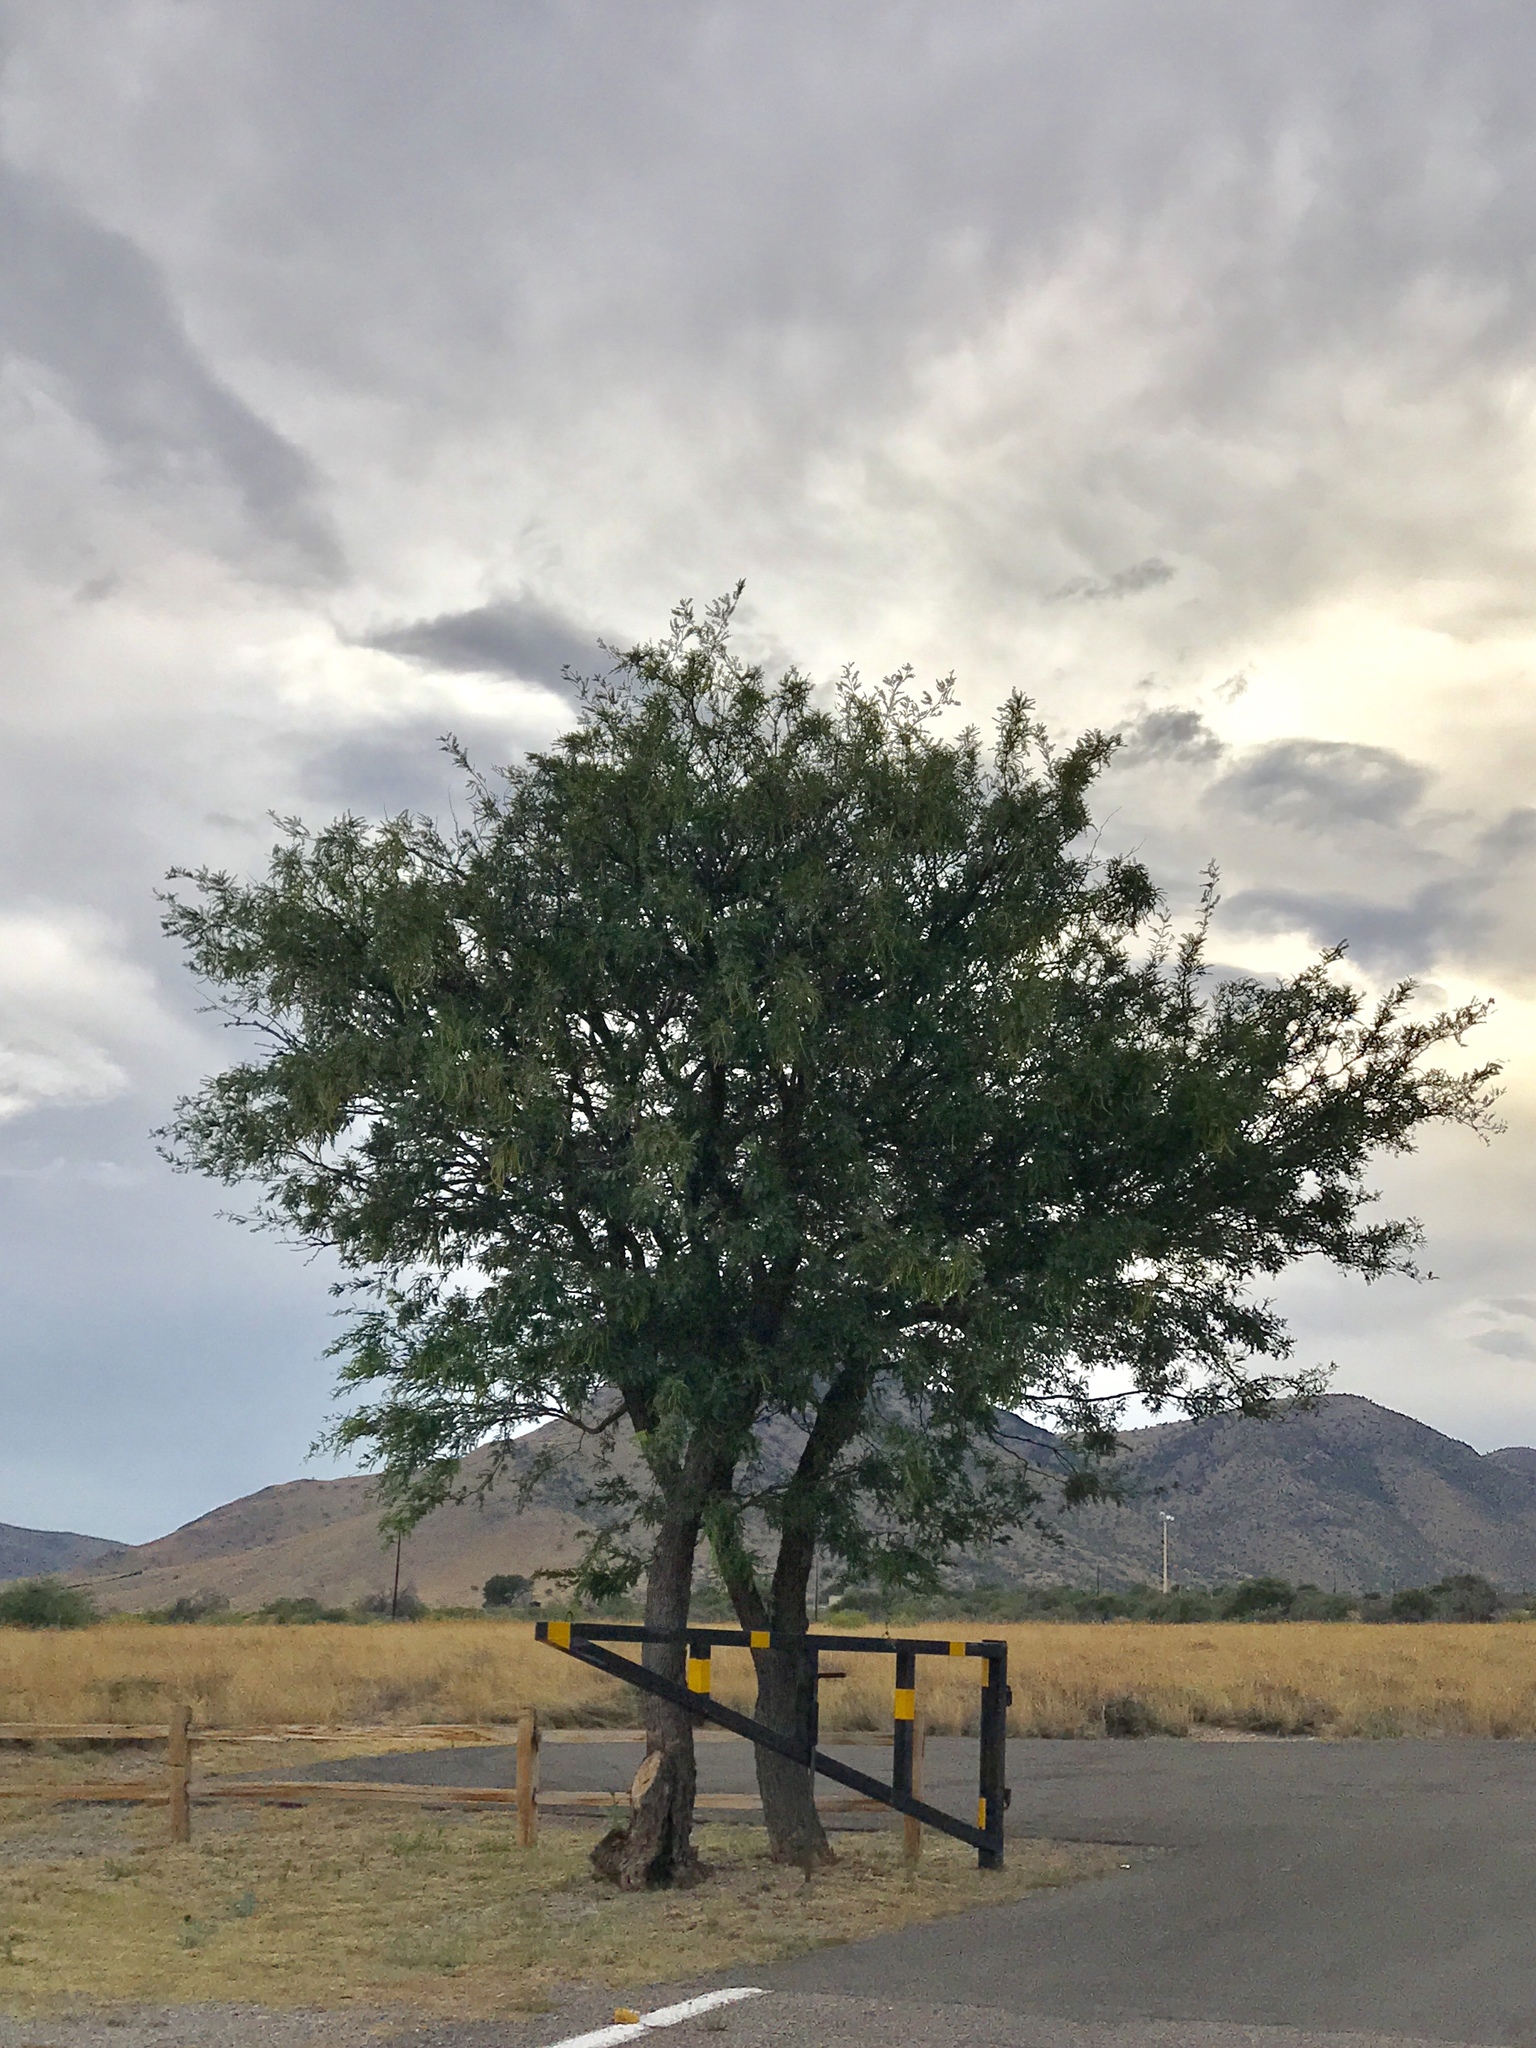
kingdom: Plantae
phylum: Tracheophyta
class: Magnoliopsida
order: Fabales
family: Fabaceae
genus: Prosopis
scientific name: Prosopis glandulosa
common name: Honey mesquite
